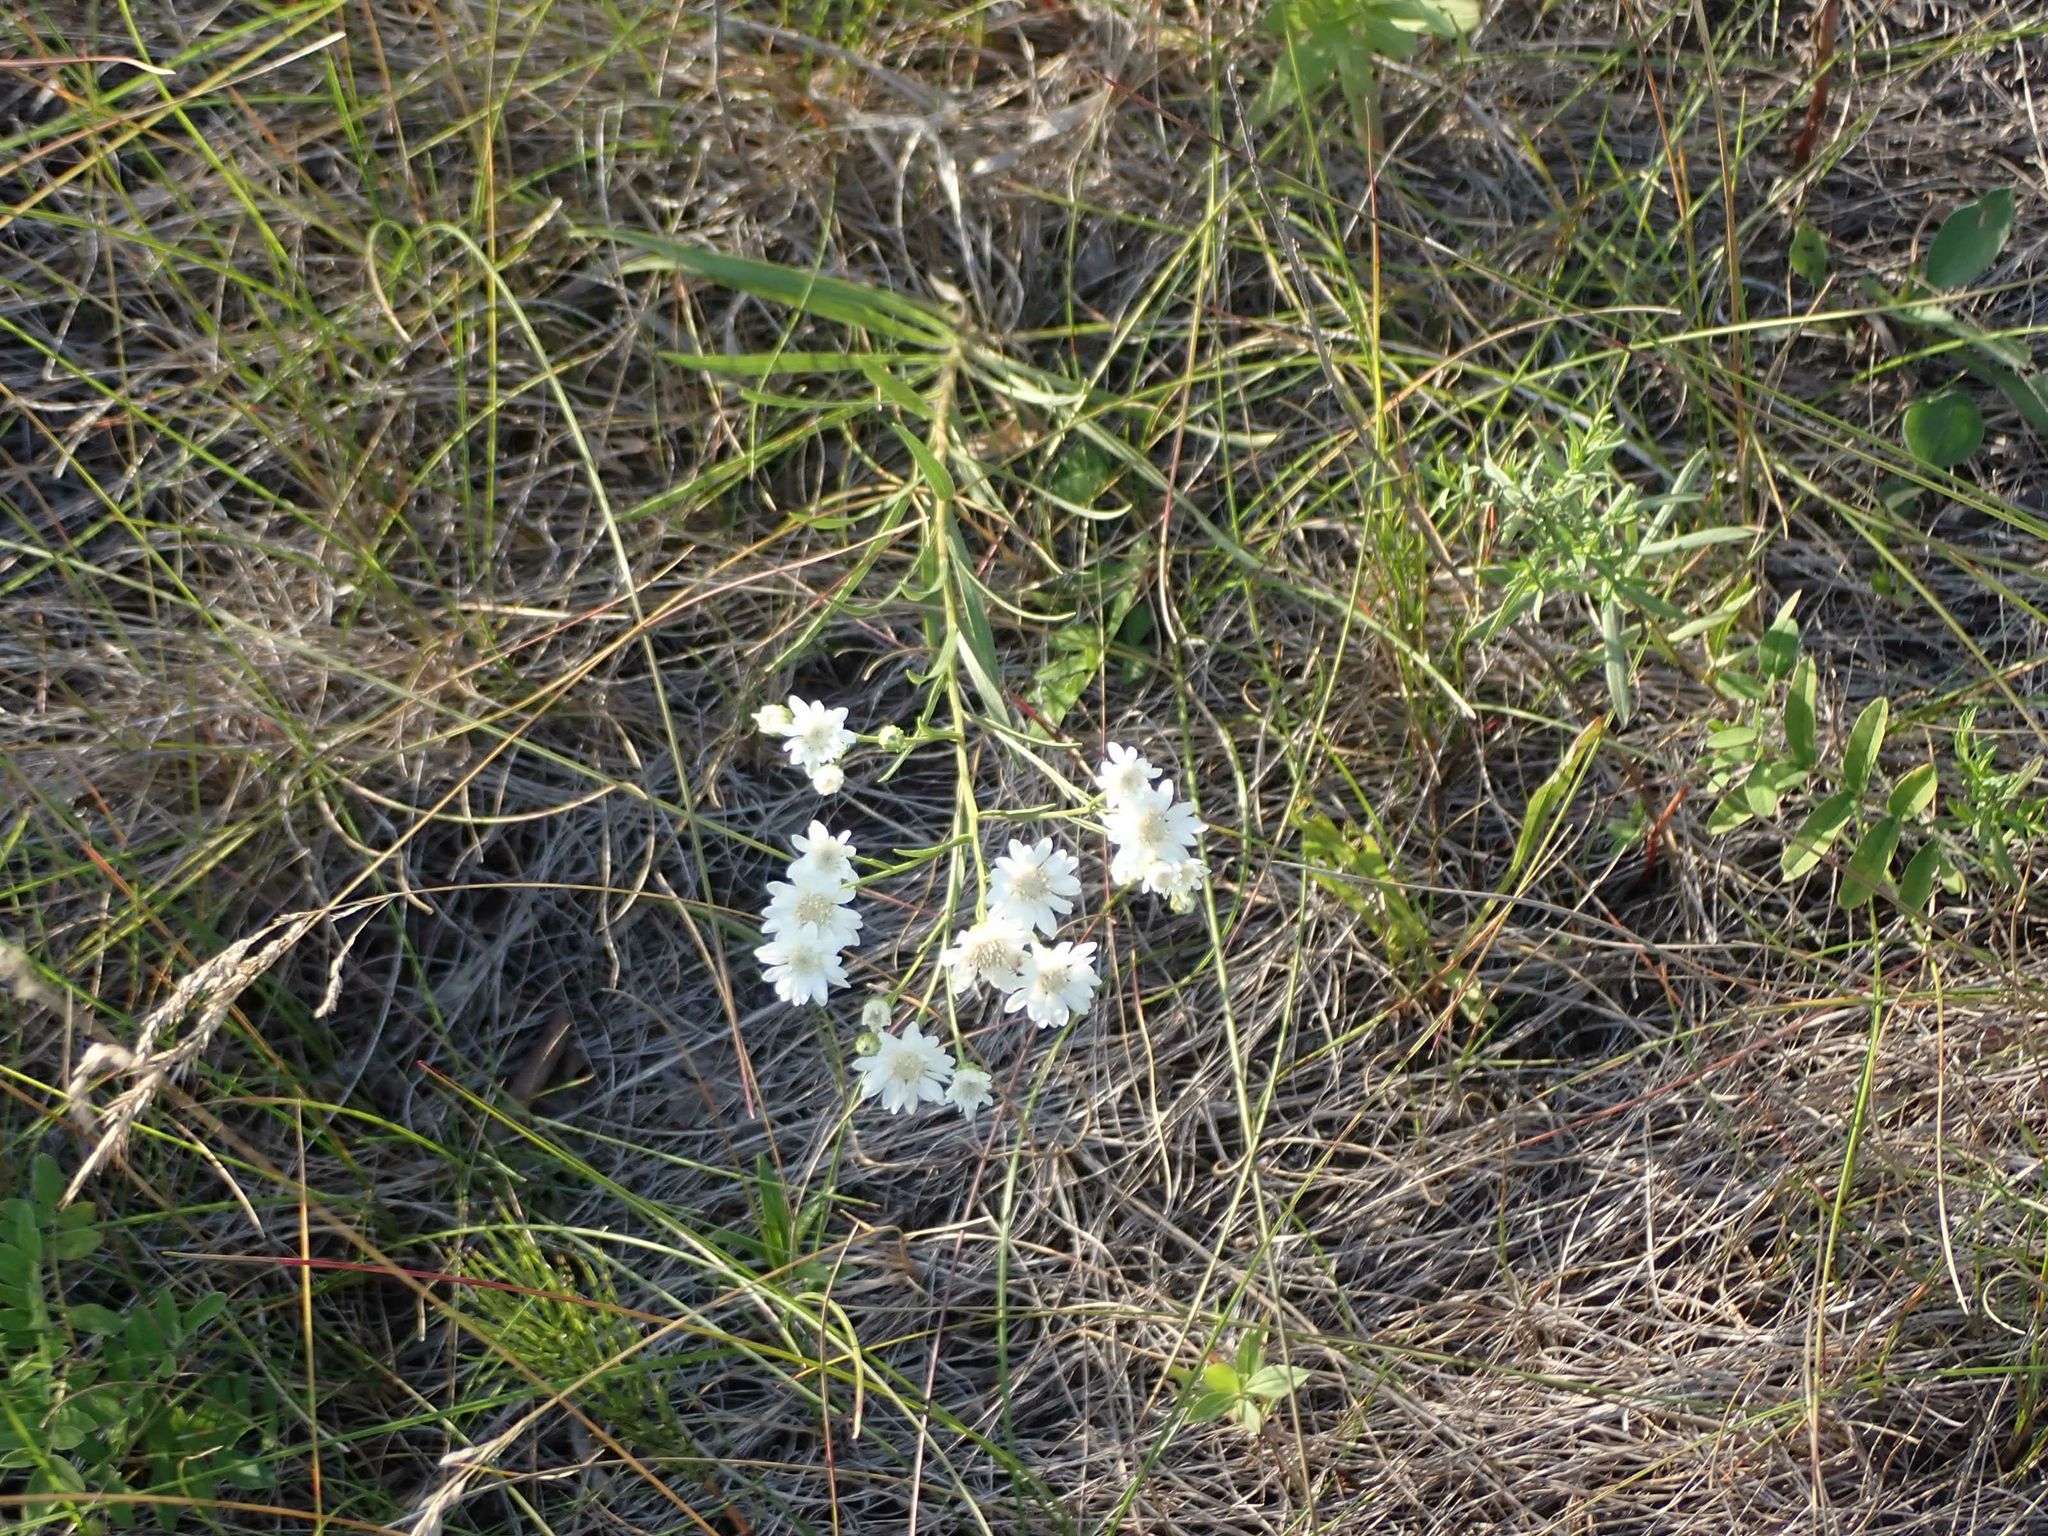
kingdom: Plantae
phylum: Tracheophyta
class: Magnoliopsida
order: Asterales
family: Asteraceae
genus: Solidago
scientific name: Solidago ptarmicoides
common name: White flat-top goldenrod
